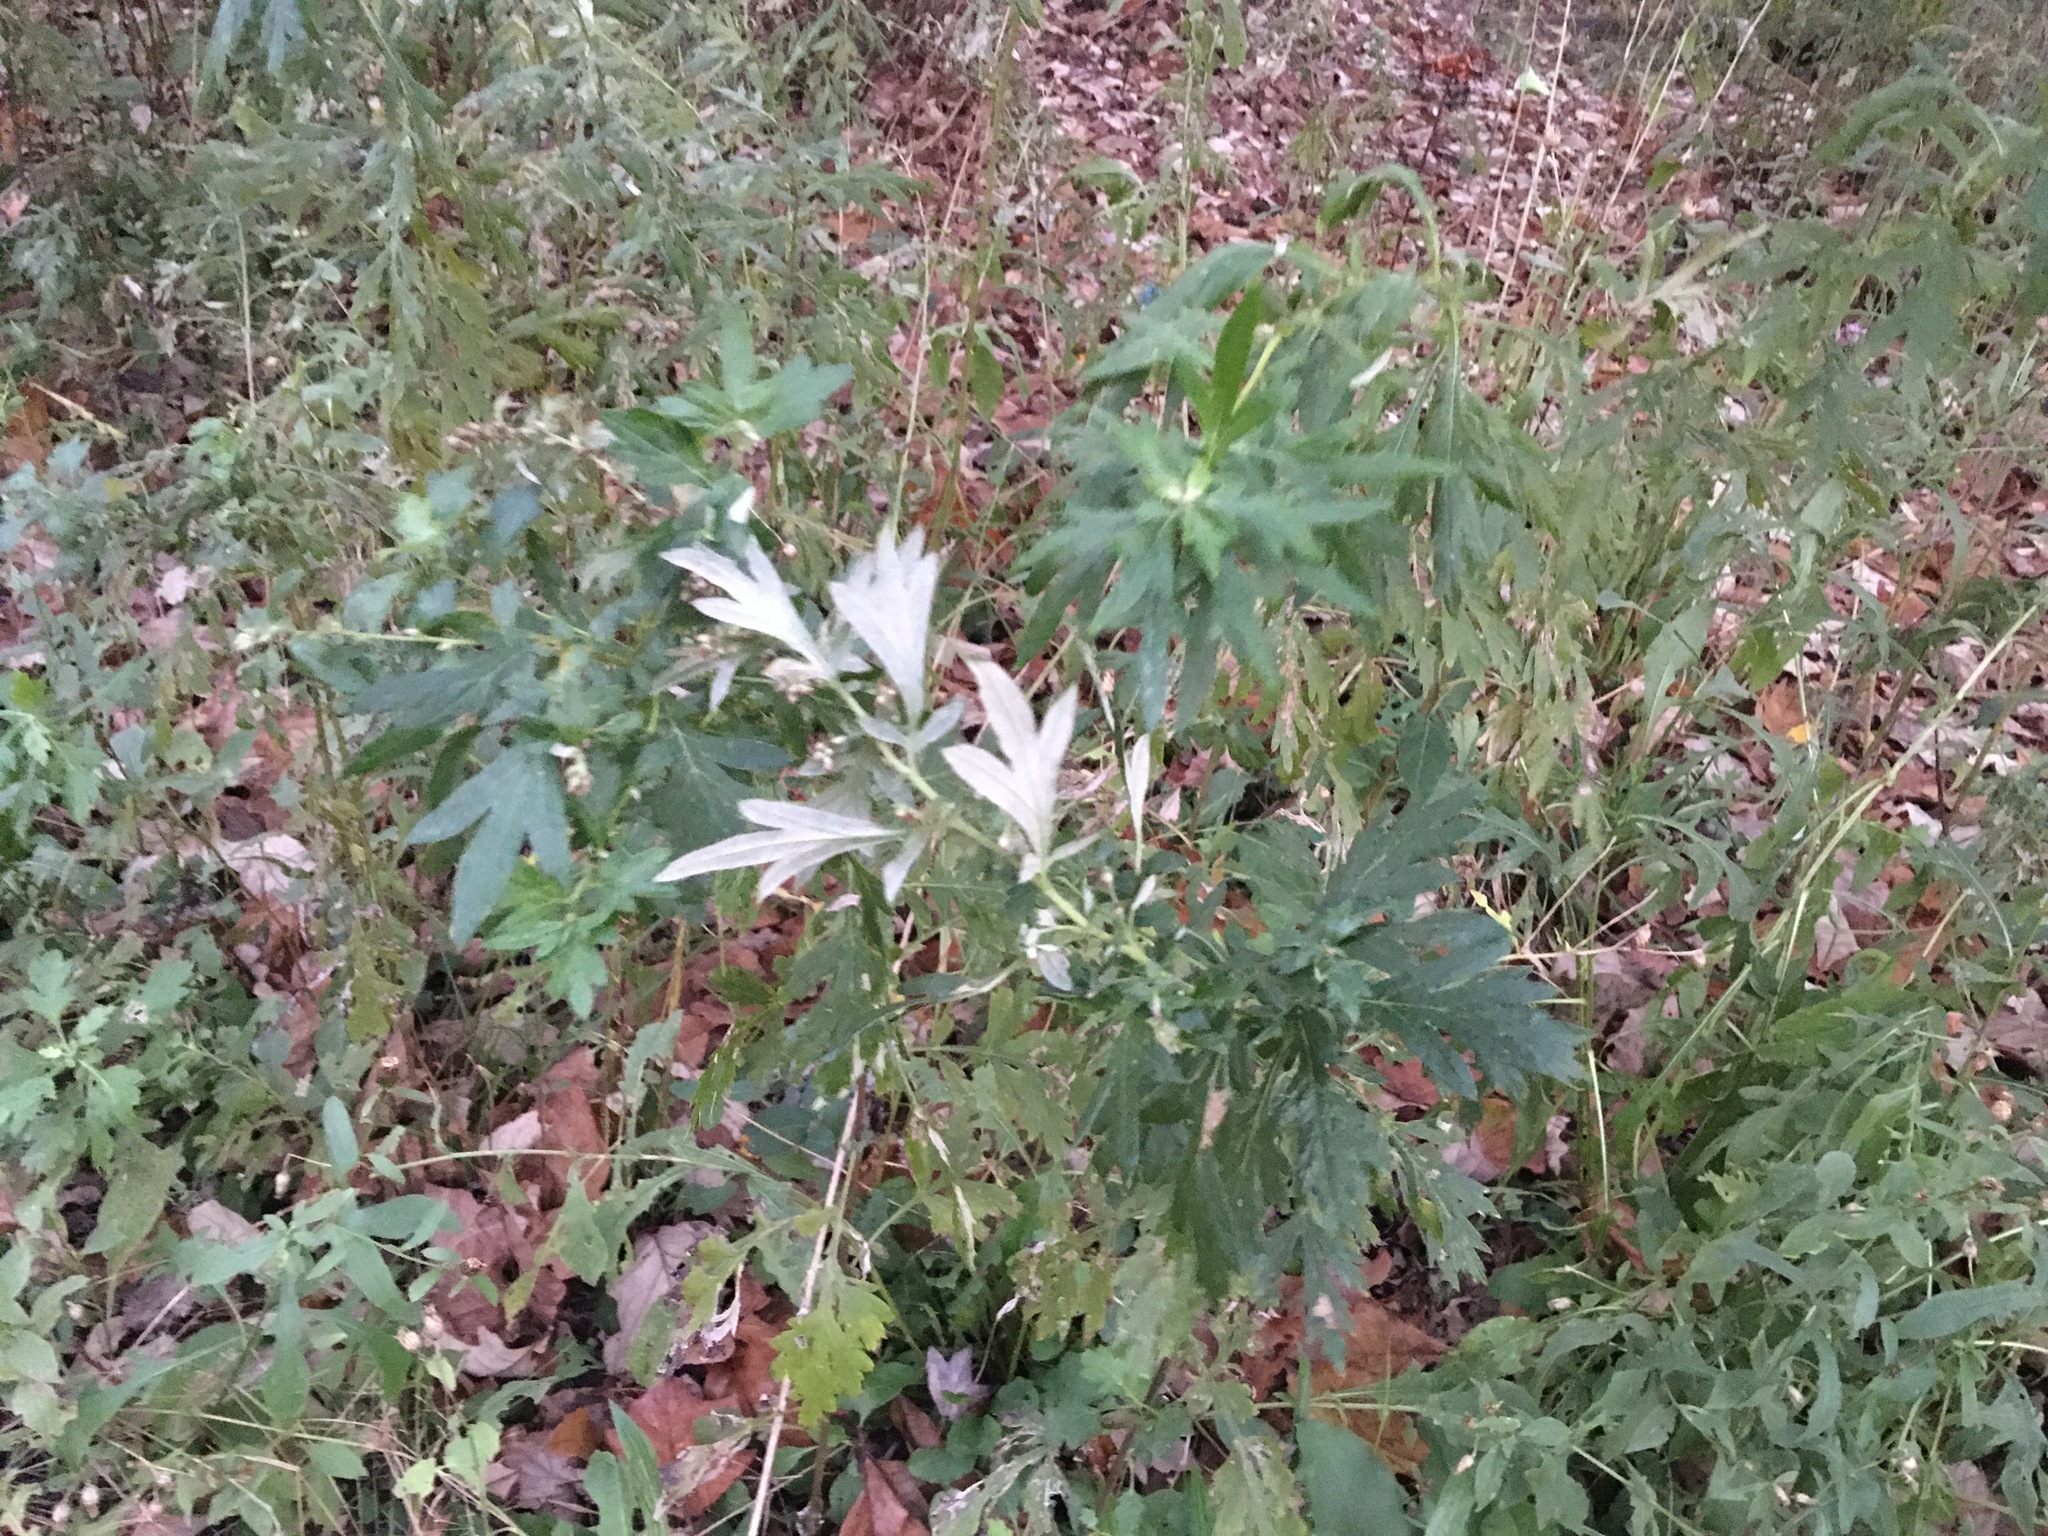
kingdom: Plantae
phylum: Tracheophyta
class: Magnoliopsida
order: Asterales
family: Asteraceae
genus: Artemisia
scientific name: Artemisia vulgaris
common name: Mugwort
